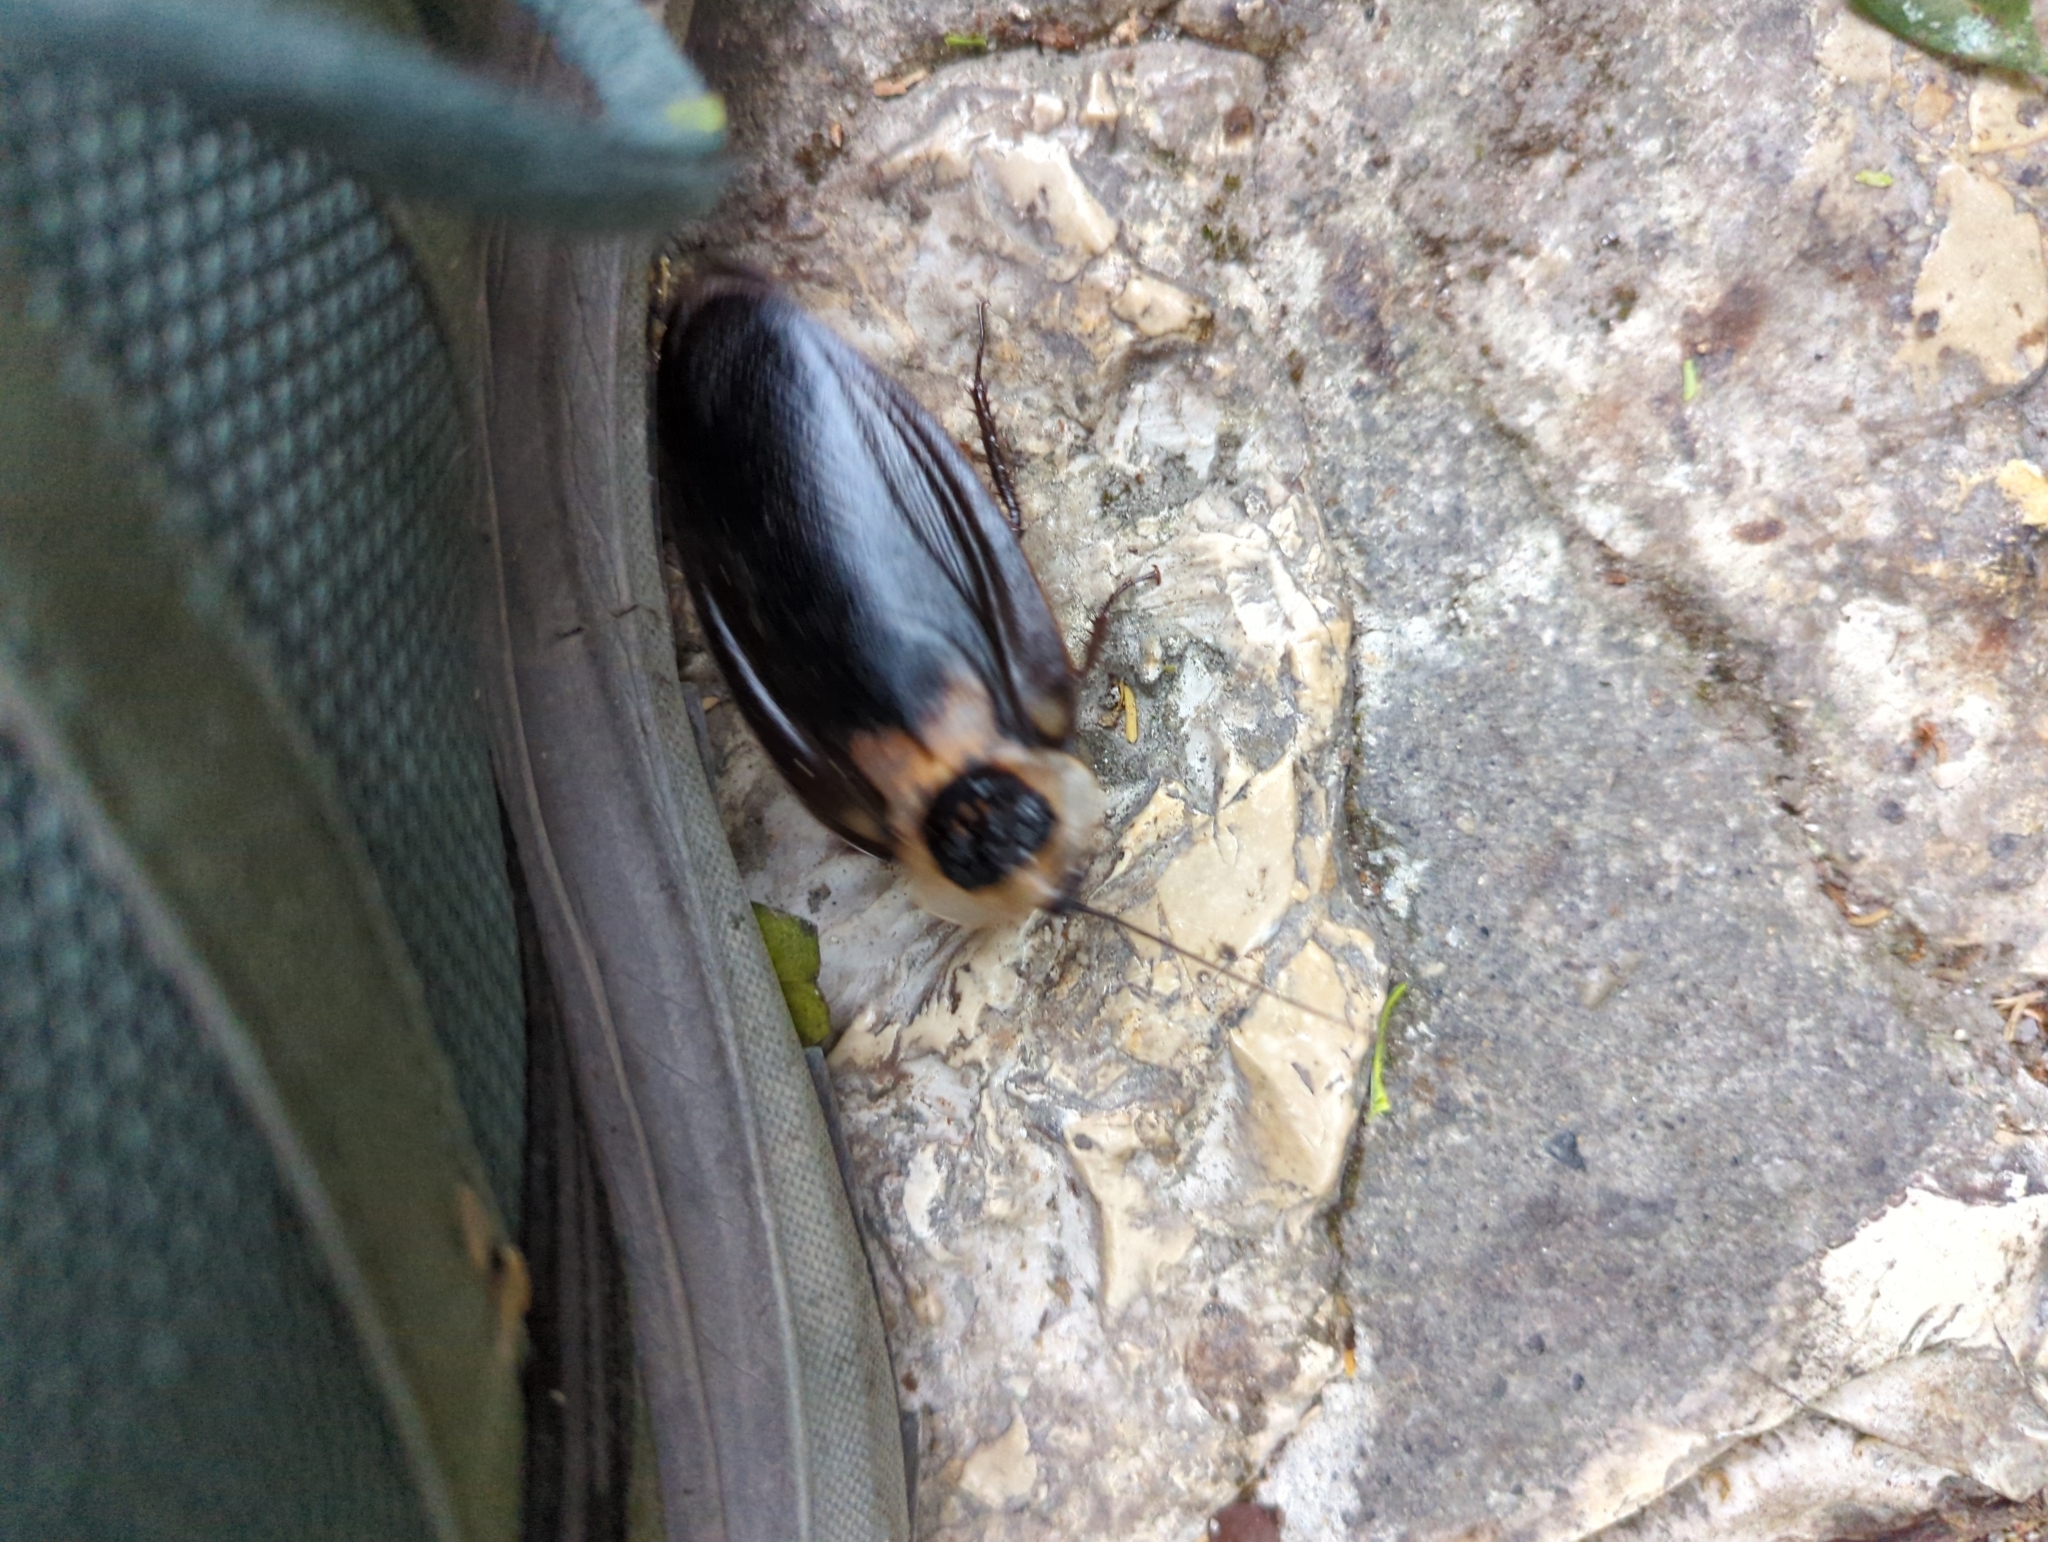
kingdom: Animalia
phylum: Arthropoda
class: Insecta
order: Blattodea
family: Blaberidae
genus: Blaberus
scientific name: Blaberus craniifer
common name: Death's head cockroach
